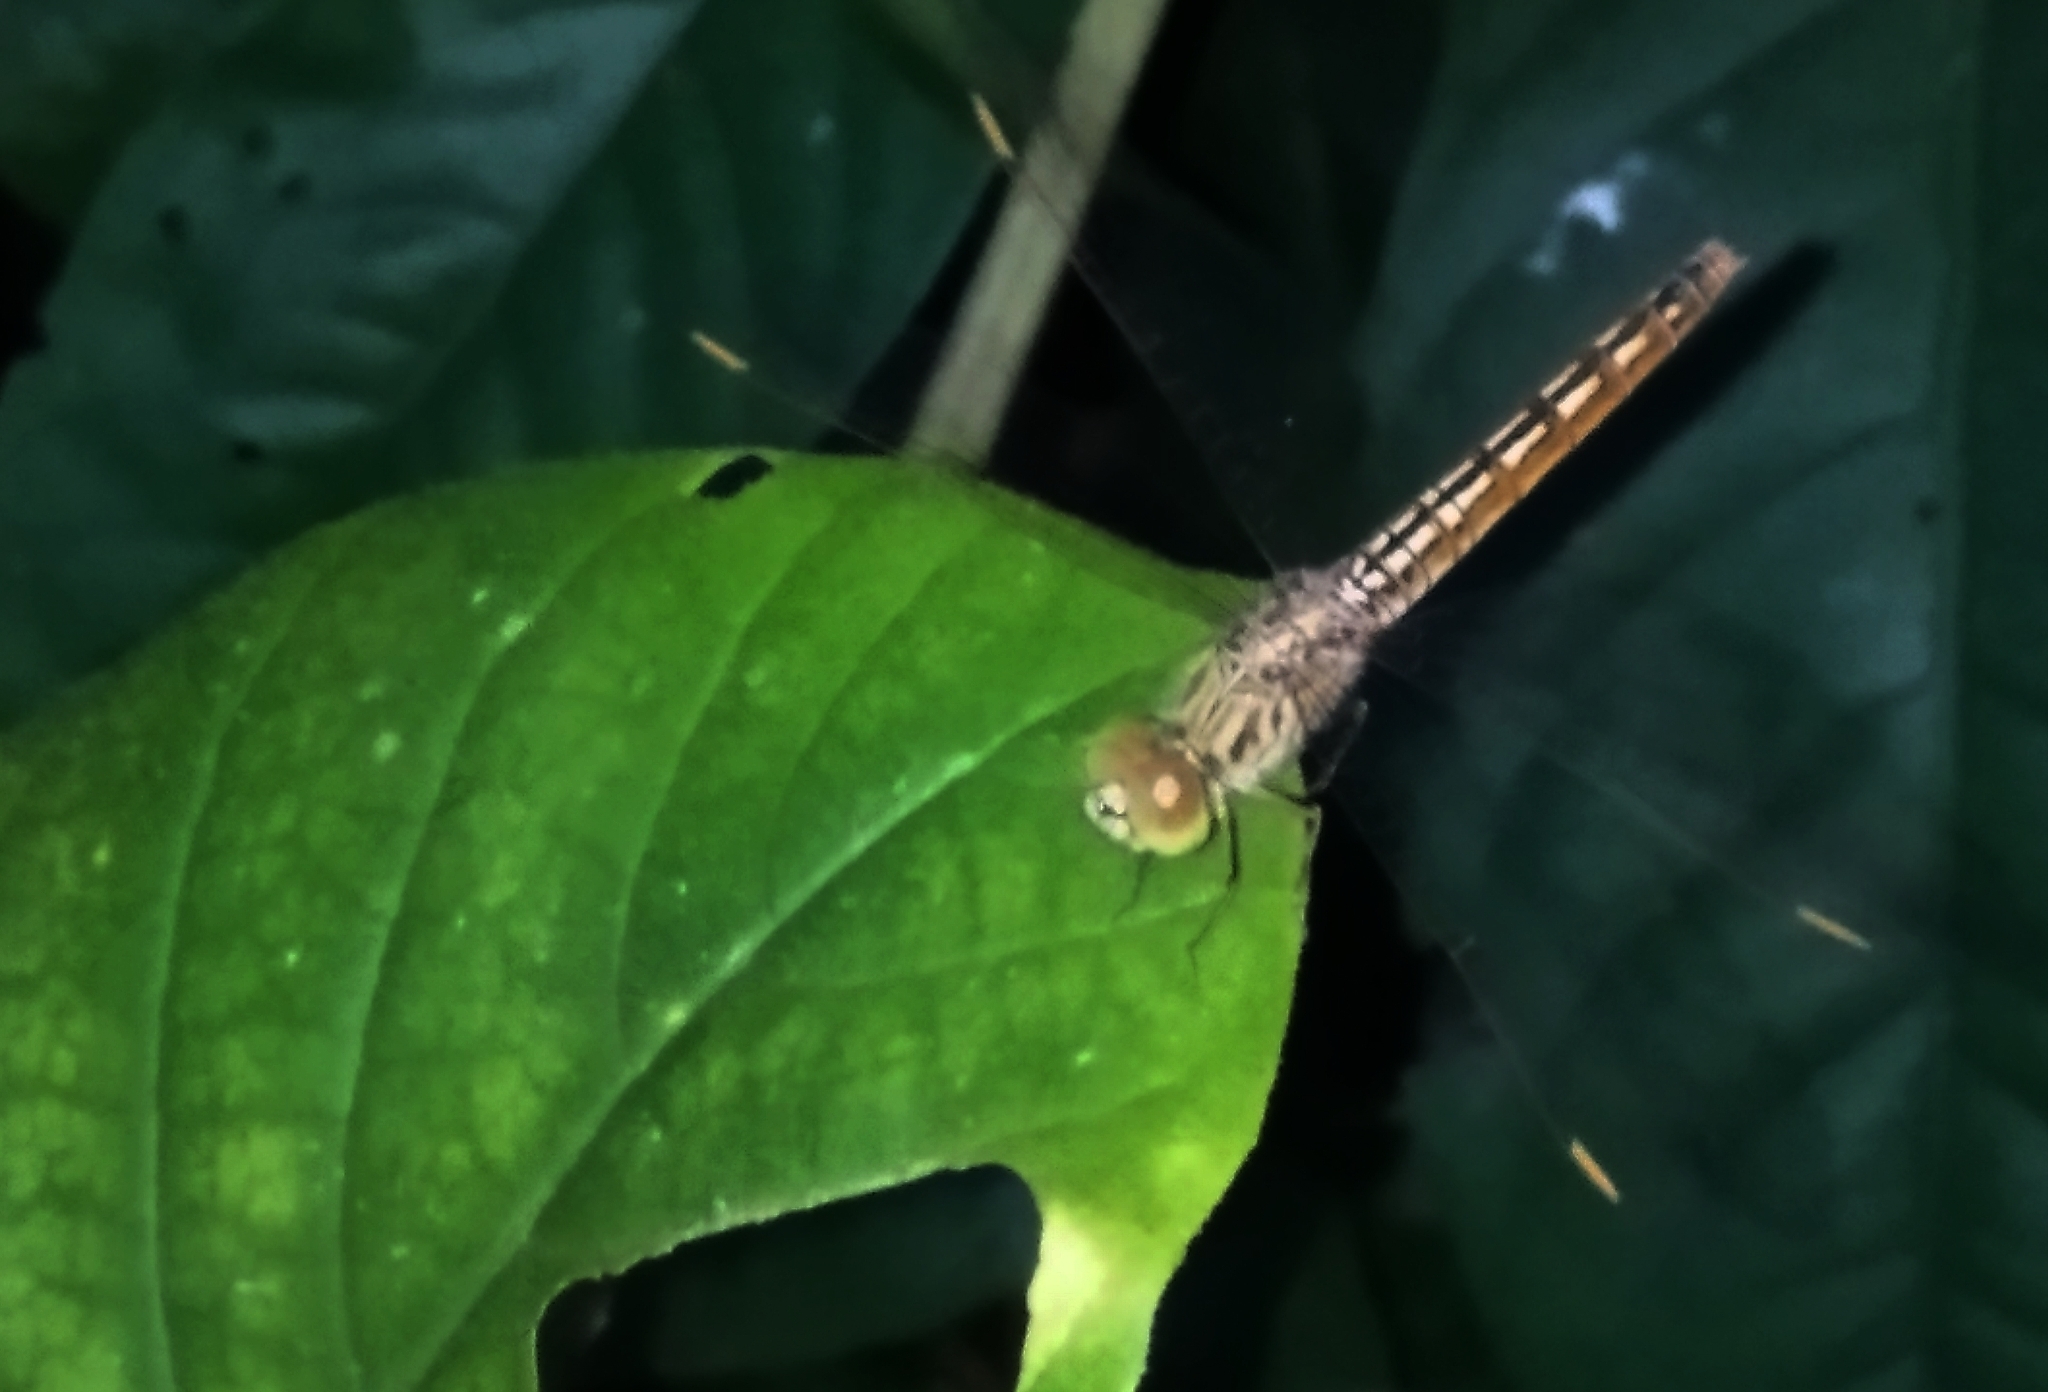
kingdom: Animalia
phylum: Arthropoda
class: Insecta
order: Odonata
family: Libellulidae
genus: Brachythemis
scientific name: Brachythemis contaminata
